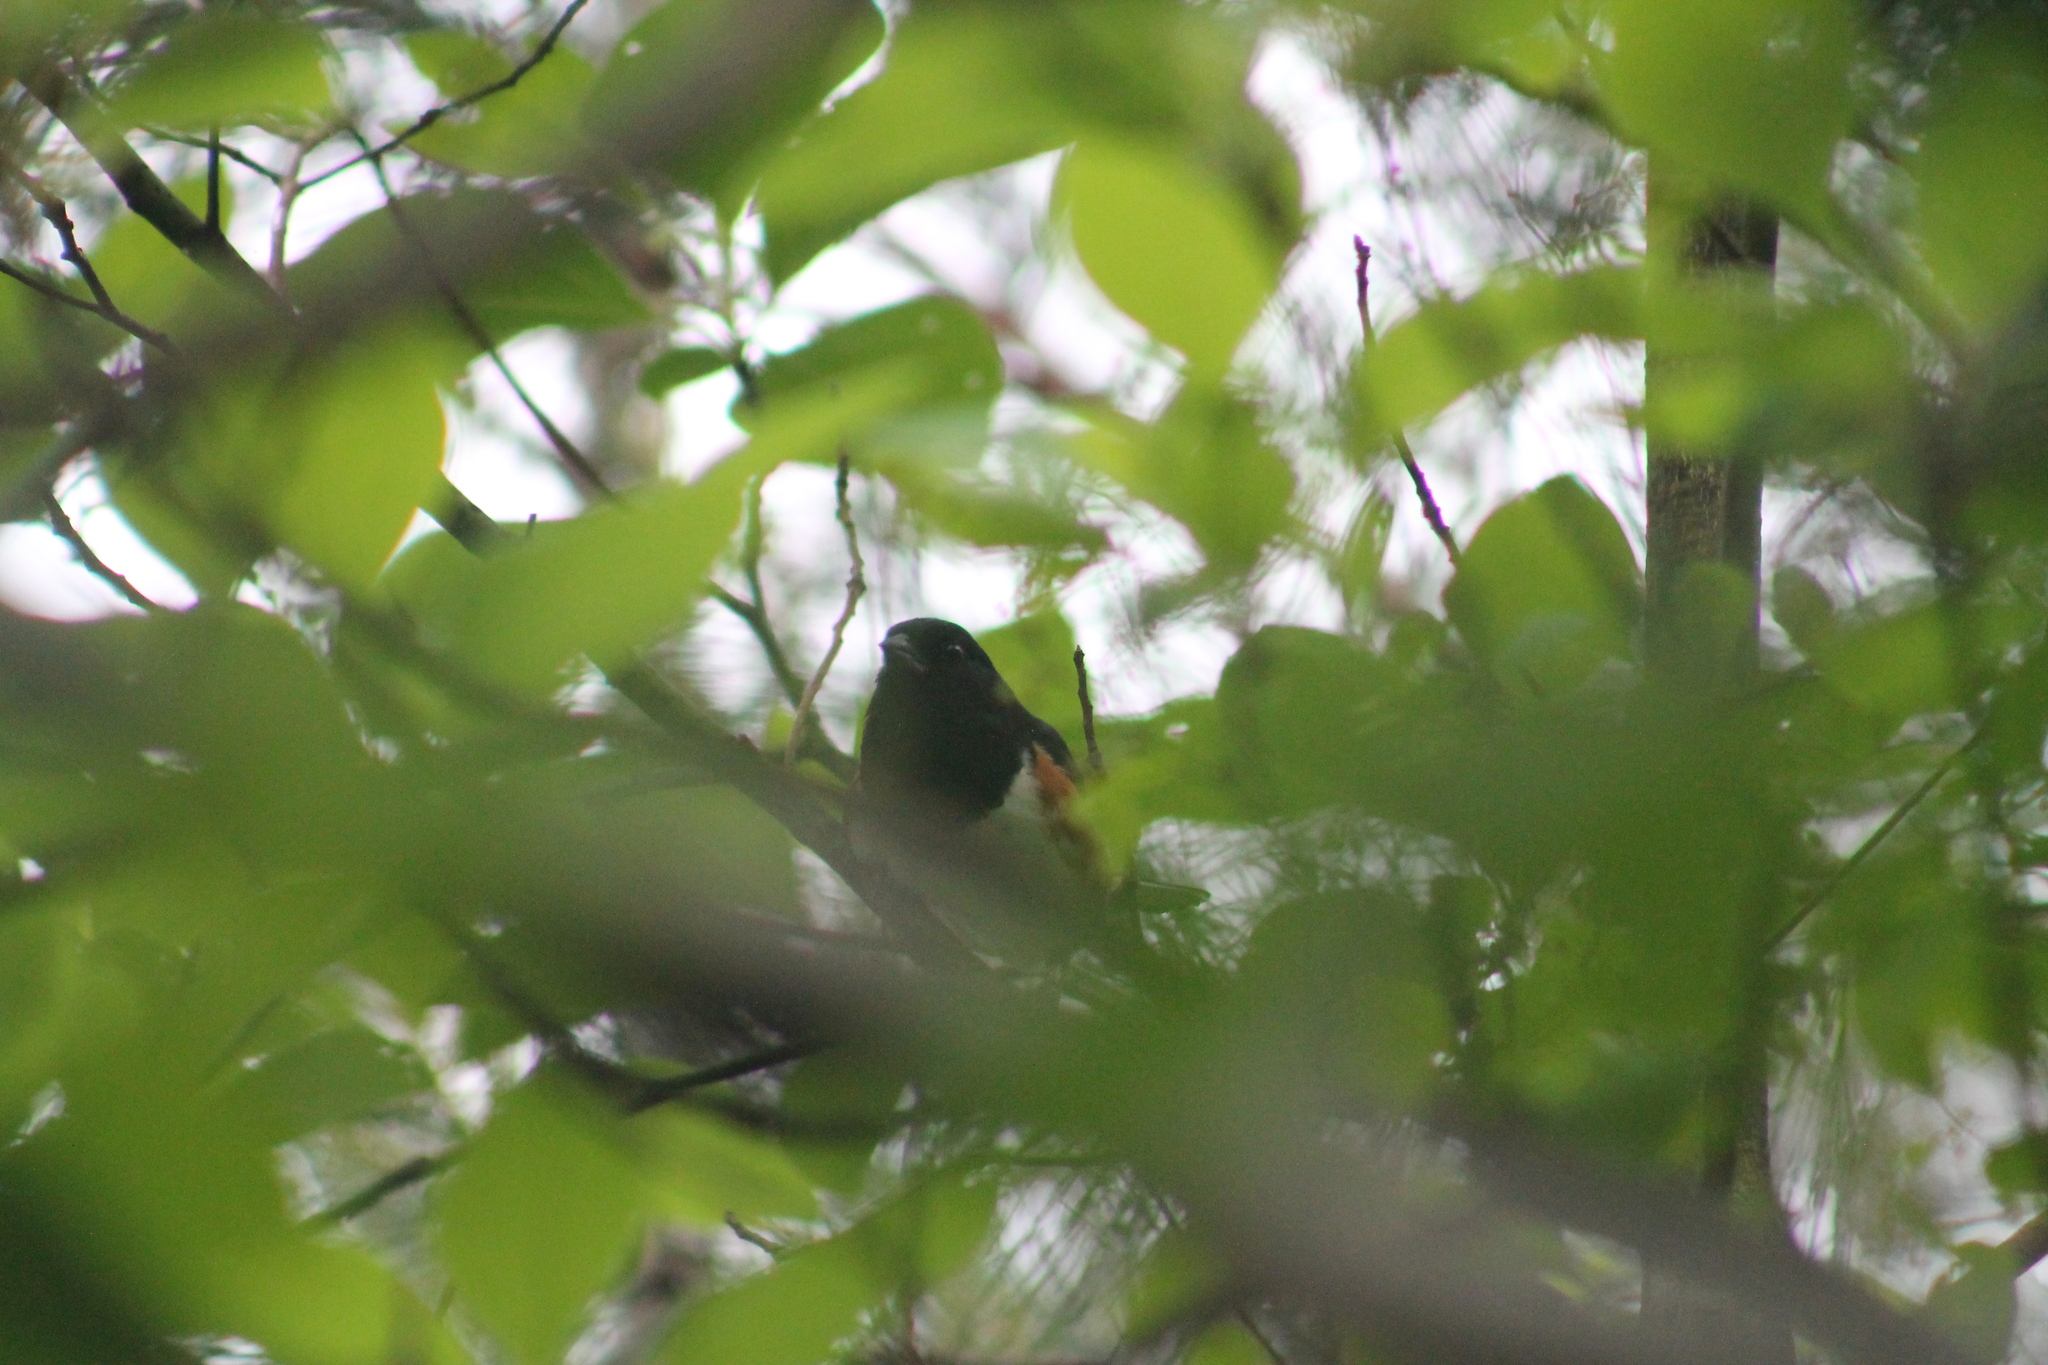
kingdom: Animalia
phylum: Chordata
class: Aves
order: Passeriformes
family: Passerellidae
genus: Pipilo
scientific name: Pipilo erythrophthalmus
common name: Eastern towhee
